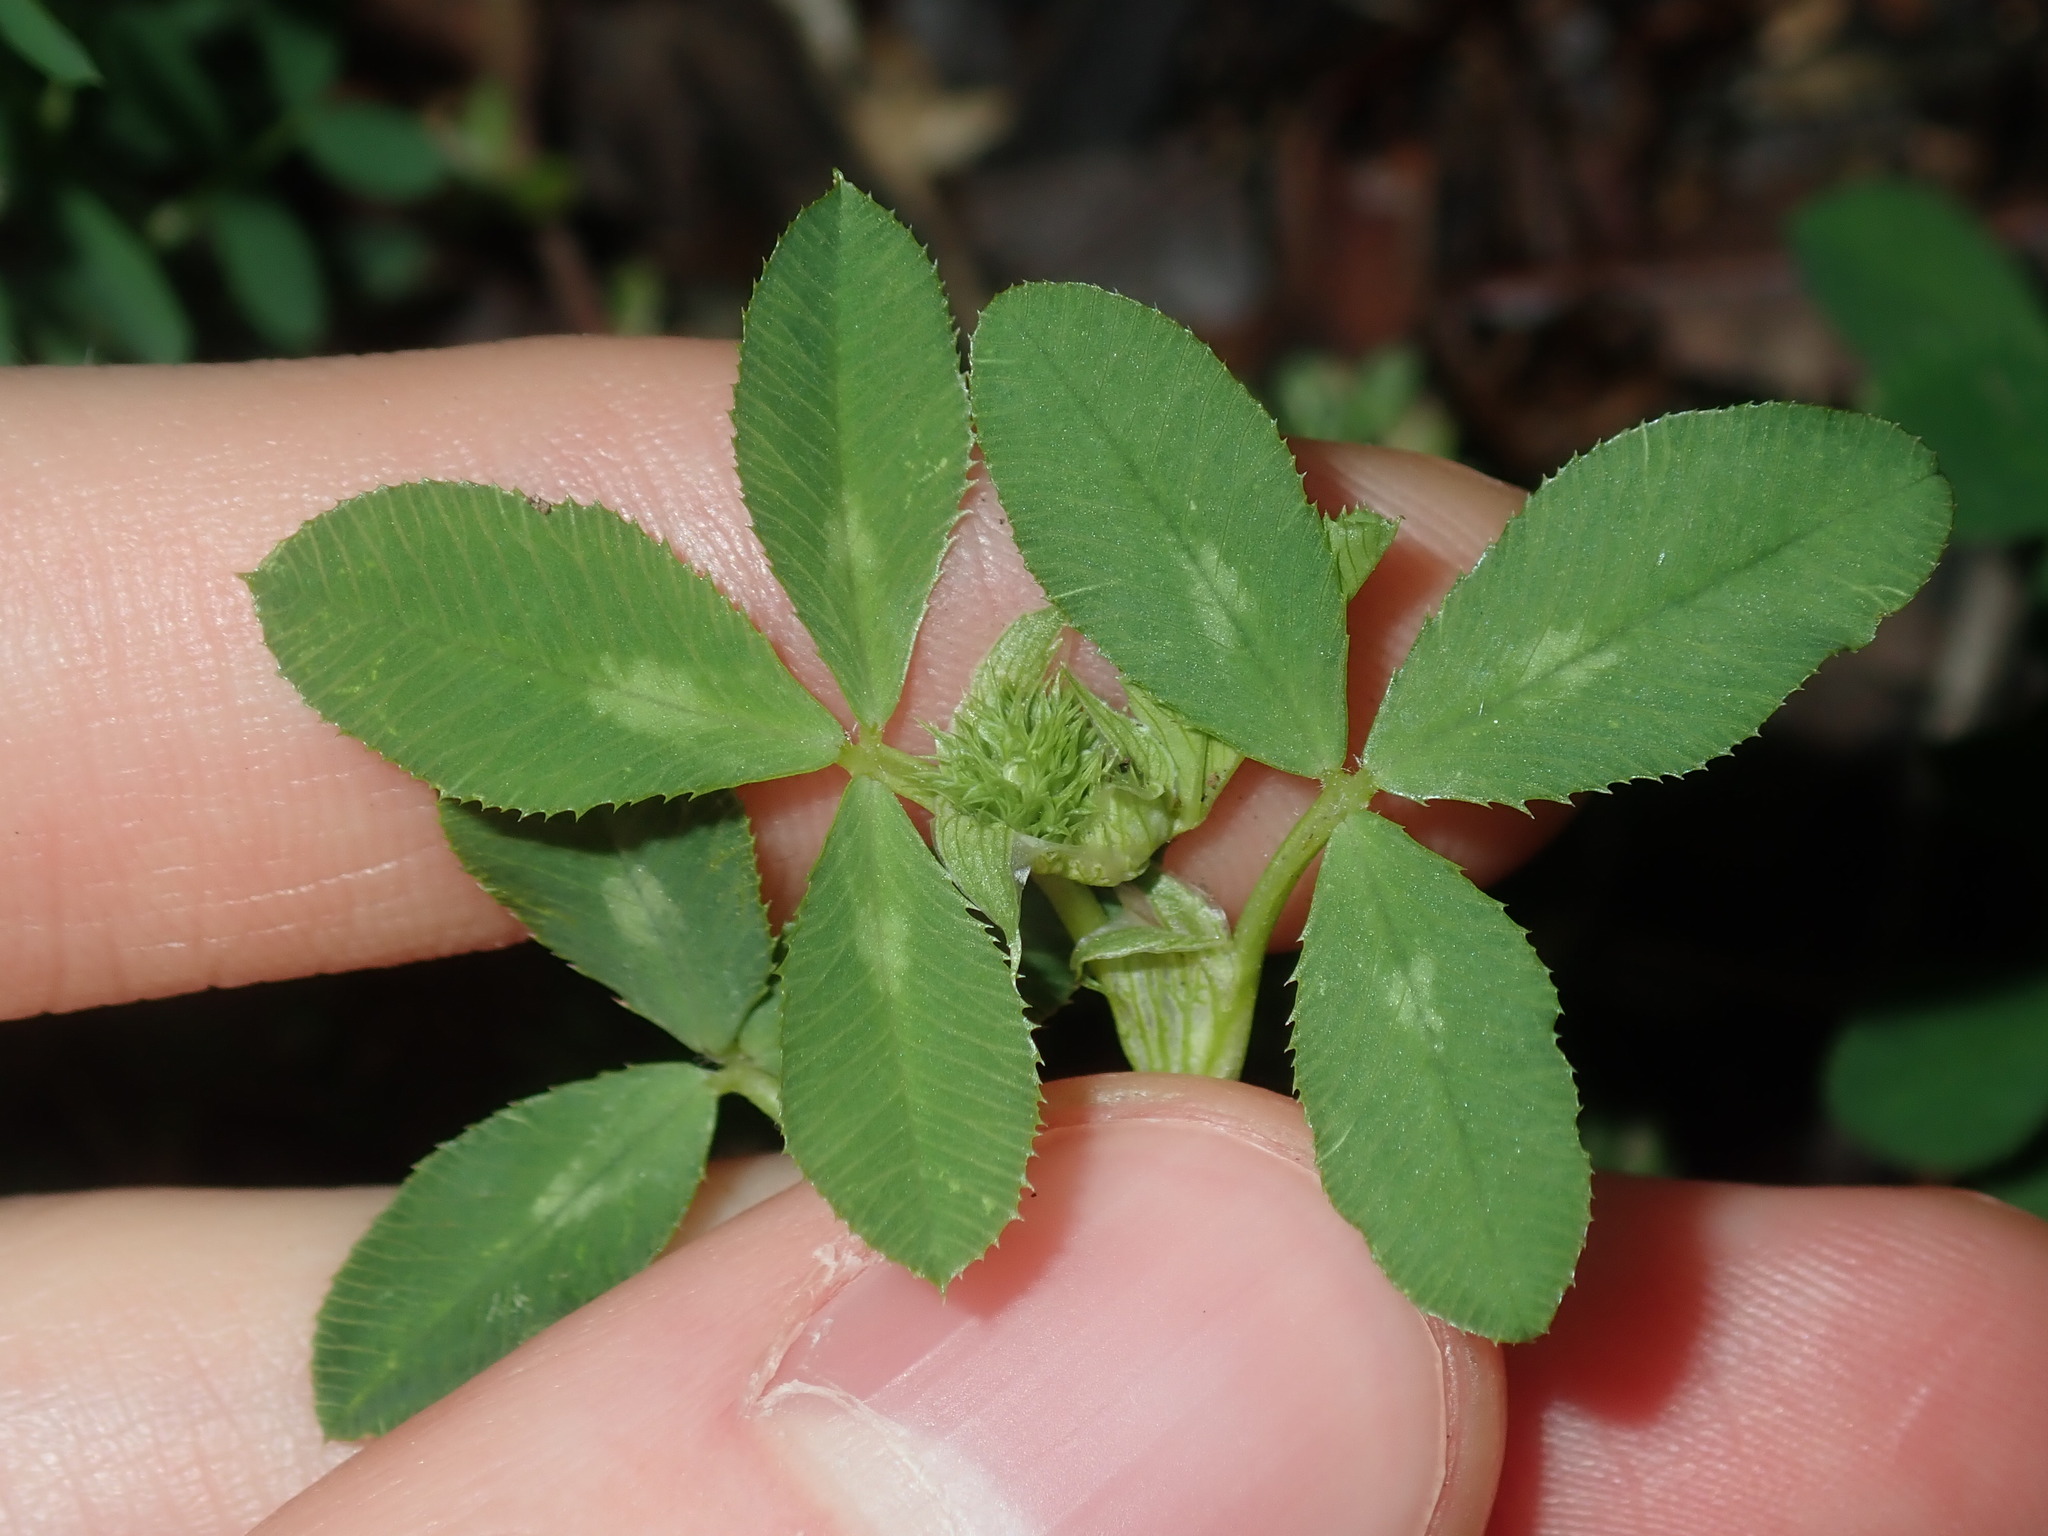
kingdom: Plantae
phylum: Tracheophyta
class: Magnoliopsida
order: Fabales
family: Fabaceae
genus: Trifolium
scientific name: Trifolium glomeratum
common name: Clustered clover
